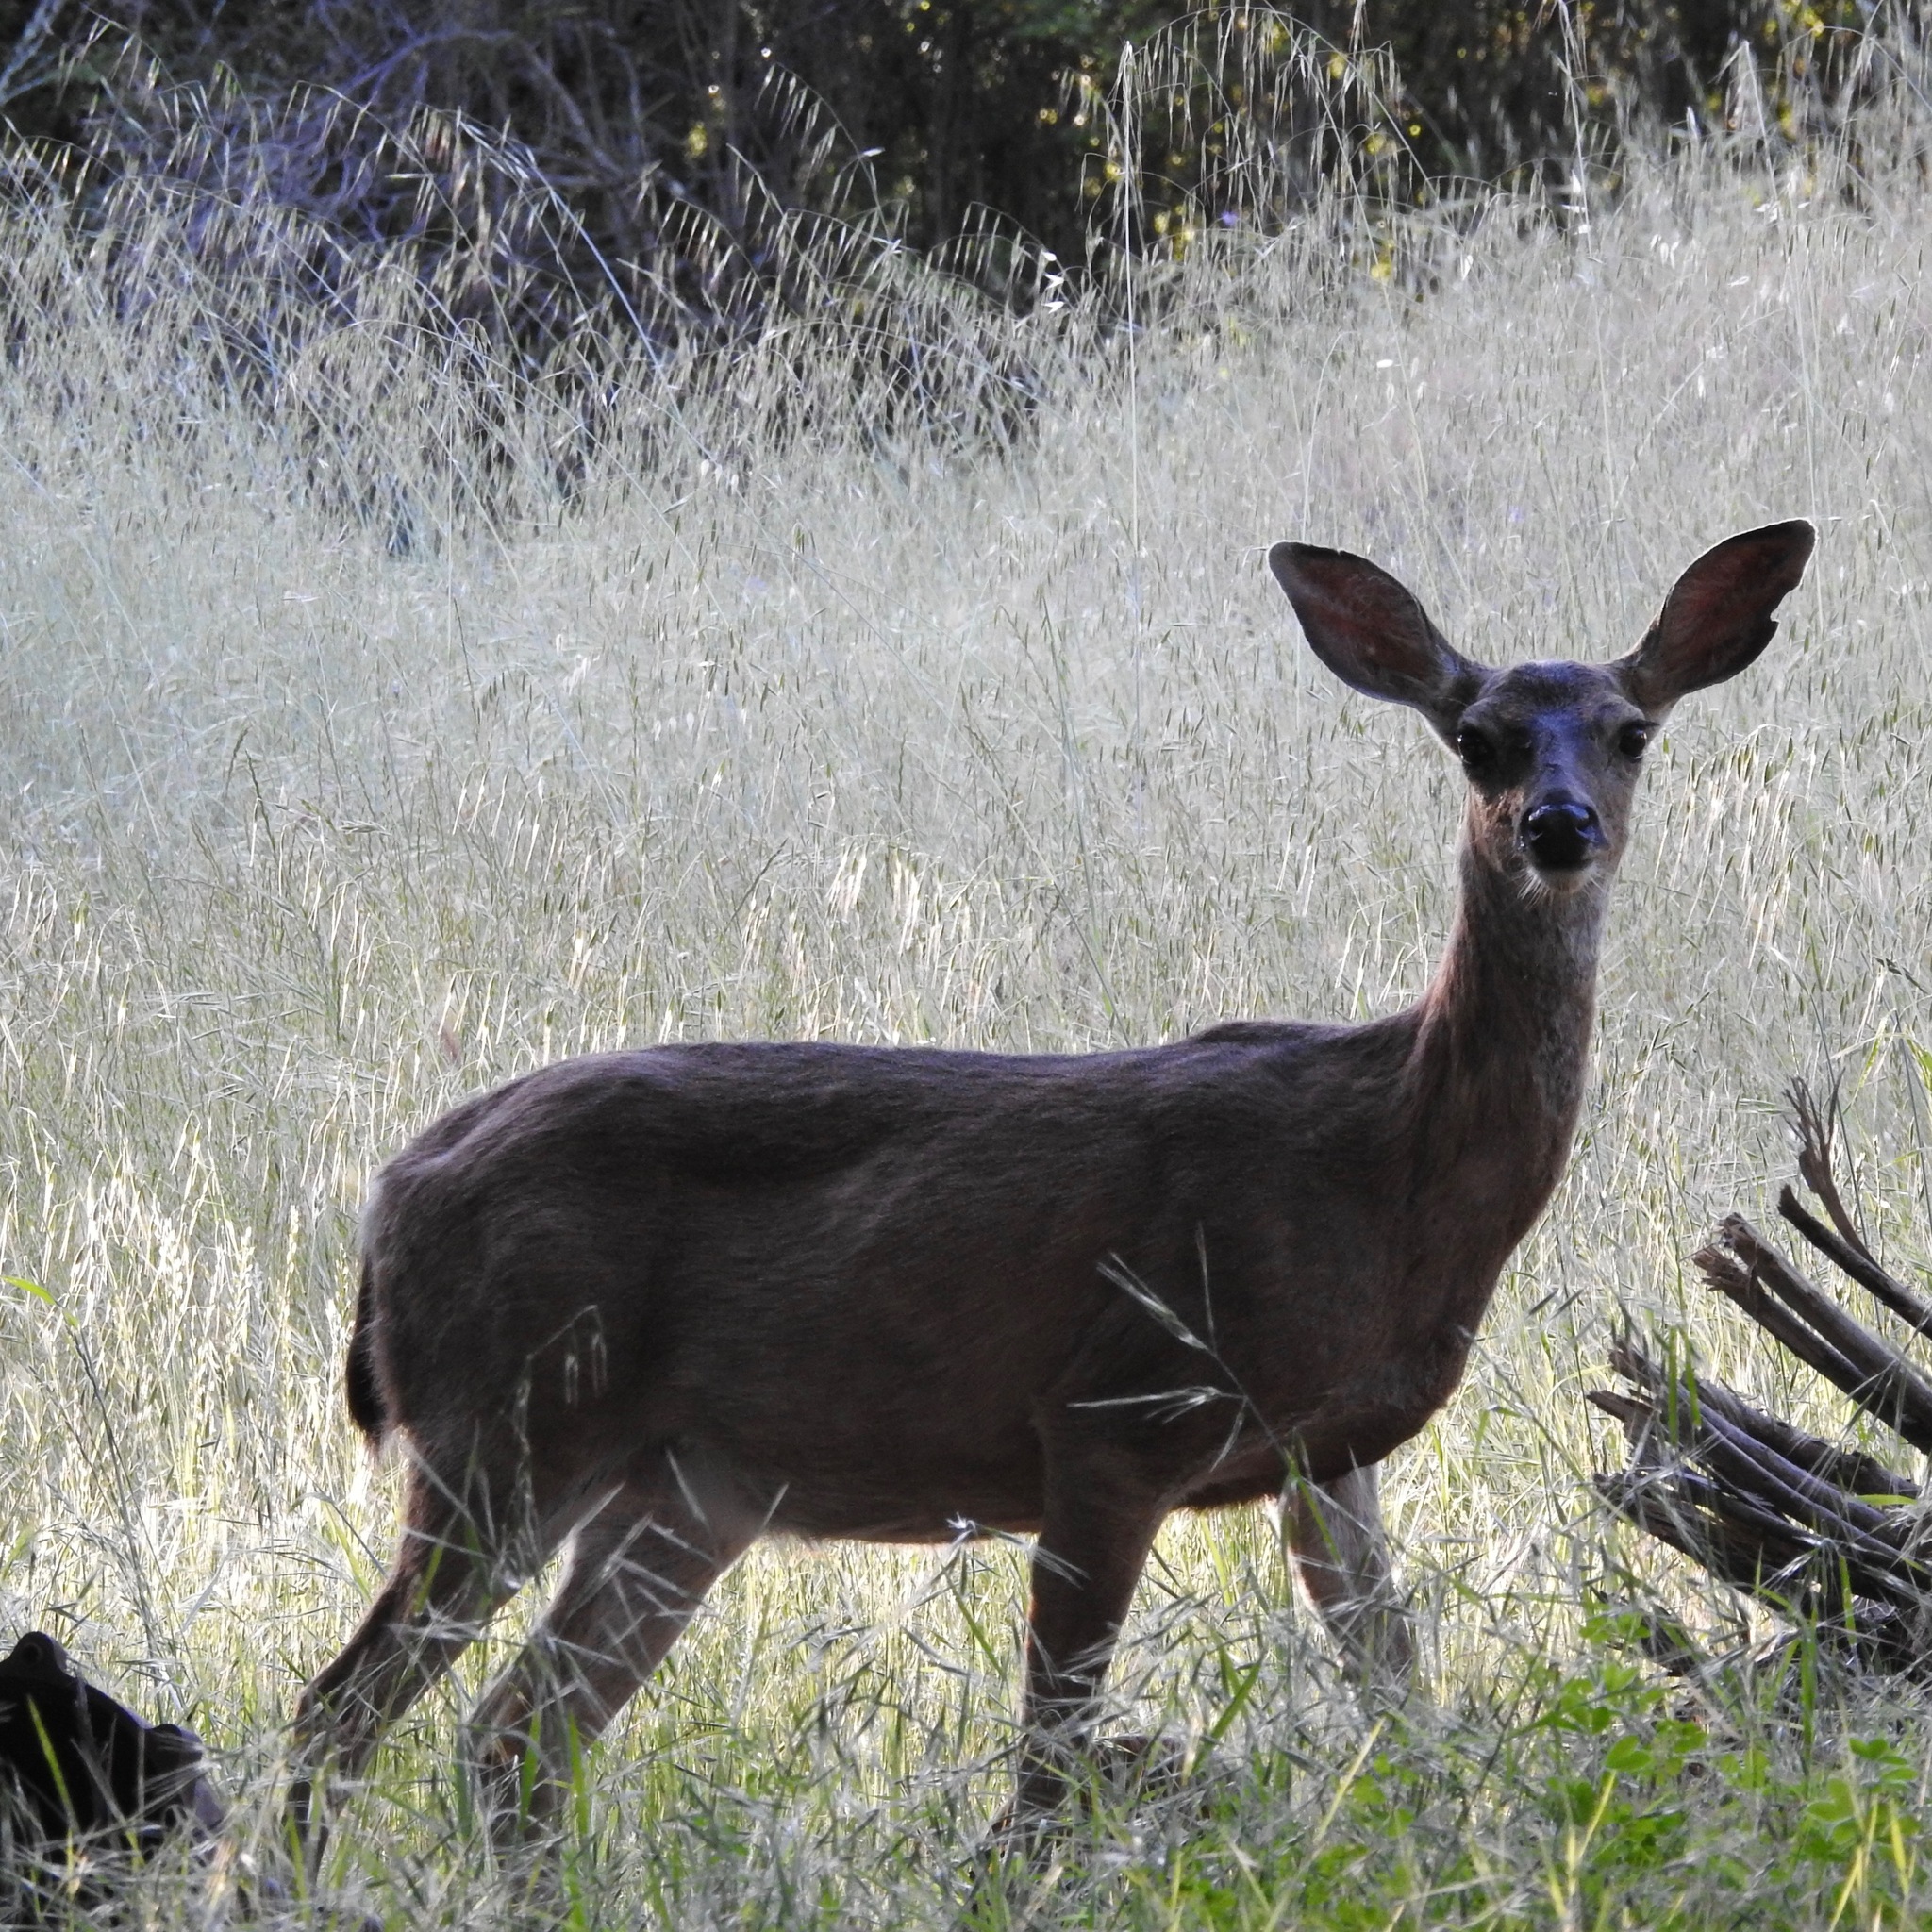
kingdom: Animalia
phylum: Chordata
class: Mammalia
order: Artiodactyla
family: Cervidae
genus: Odocoileus
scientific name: Odocoileus hemionus
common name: Mule deer
